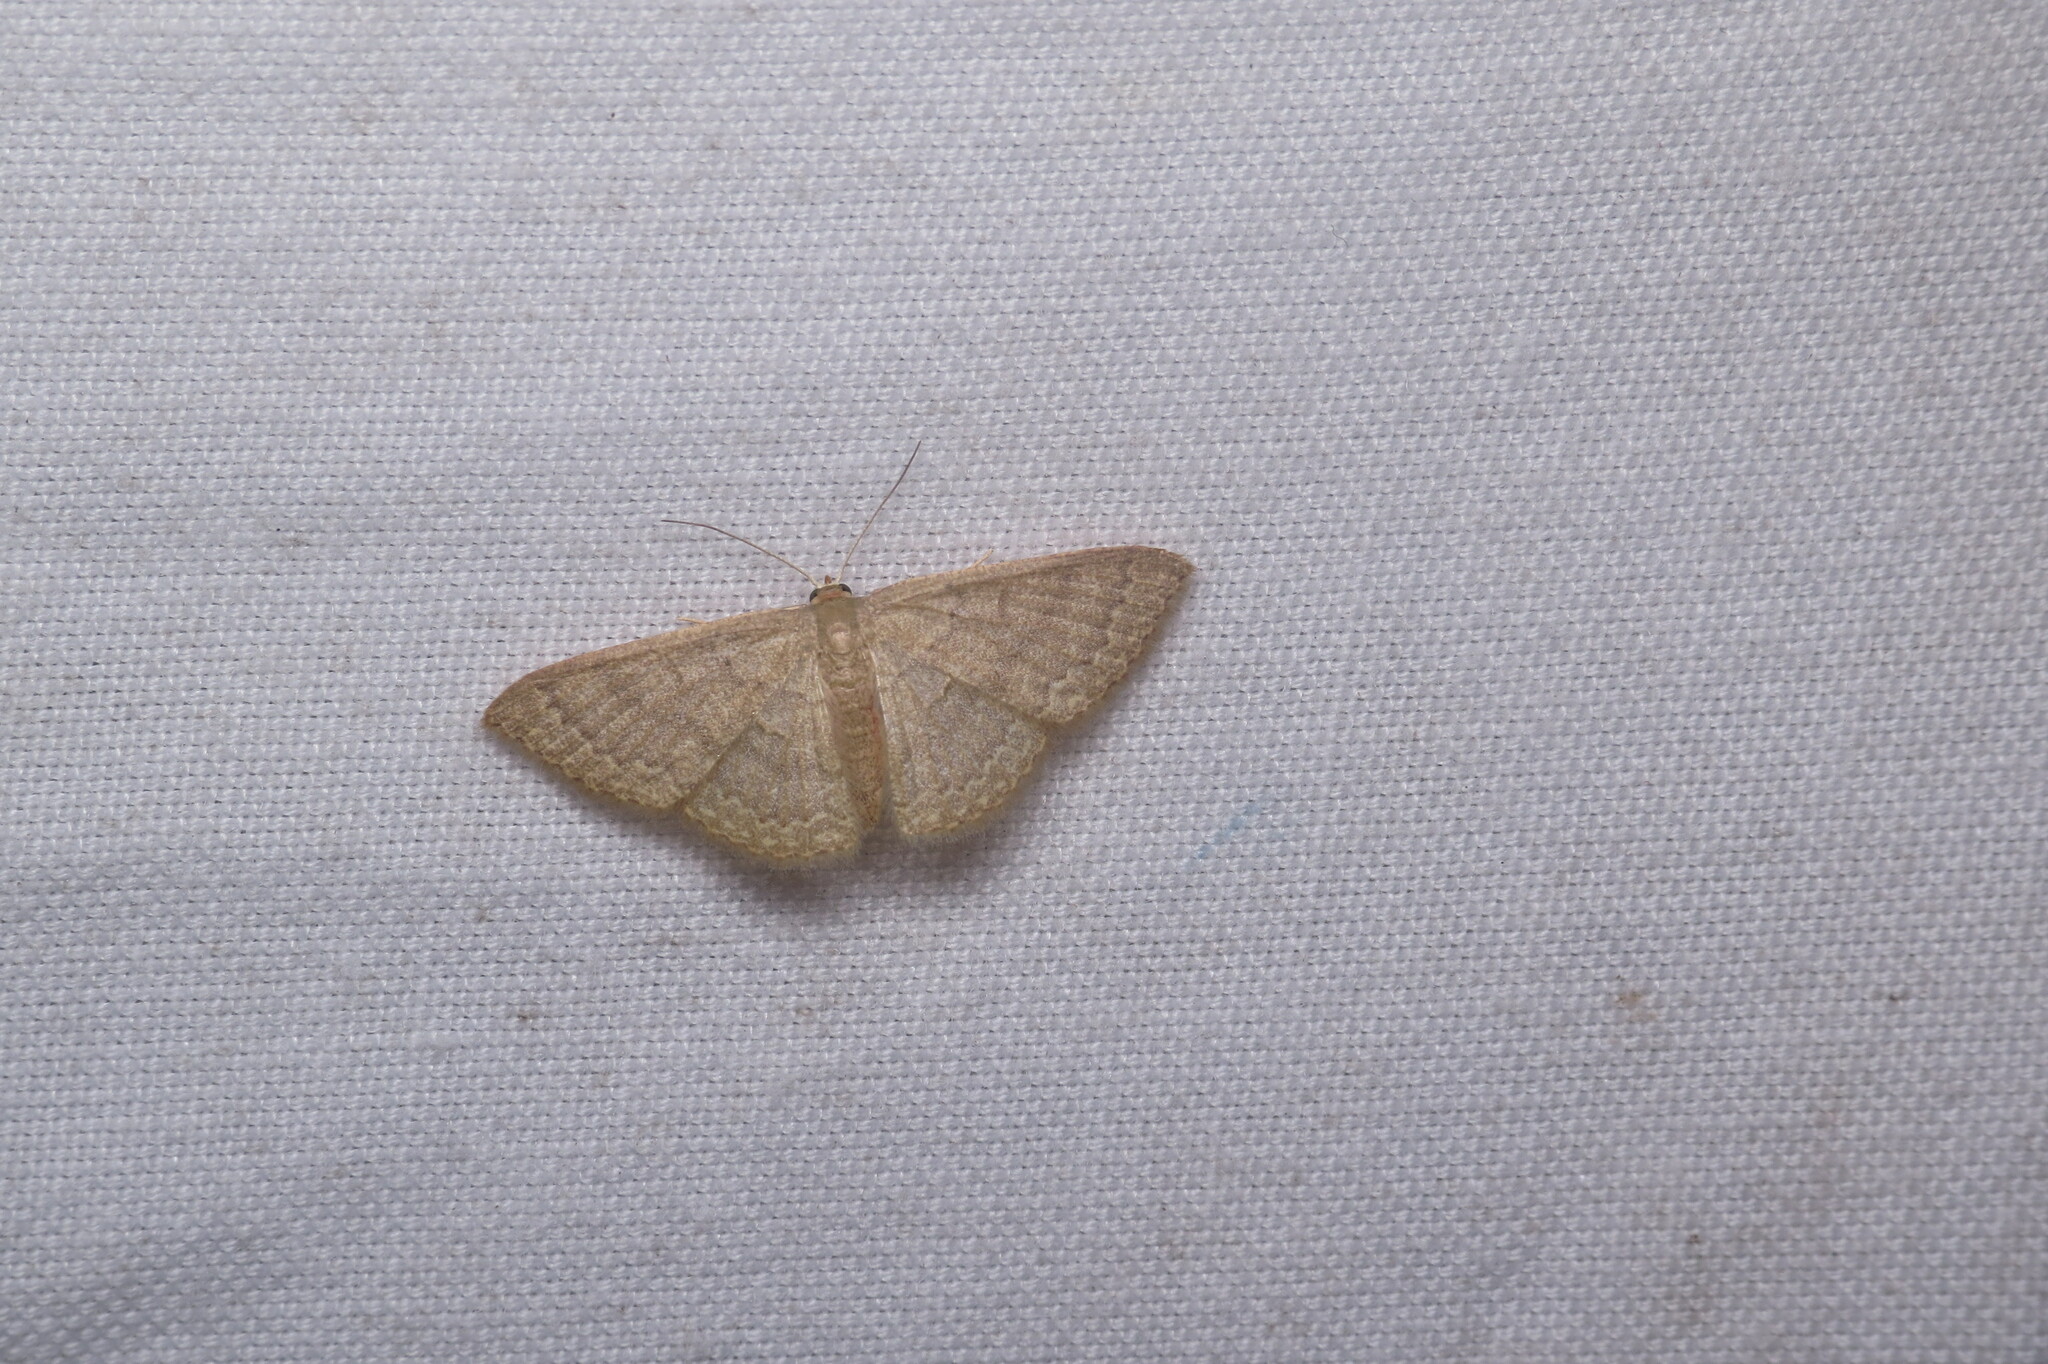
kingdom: Animalia
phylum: Arthropoda
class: Insecta
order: Lepidoptera
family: Geometridae
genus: Pleuroprucha
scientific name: Pleuroprucha insulsaria
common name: Common tan wave
